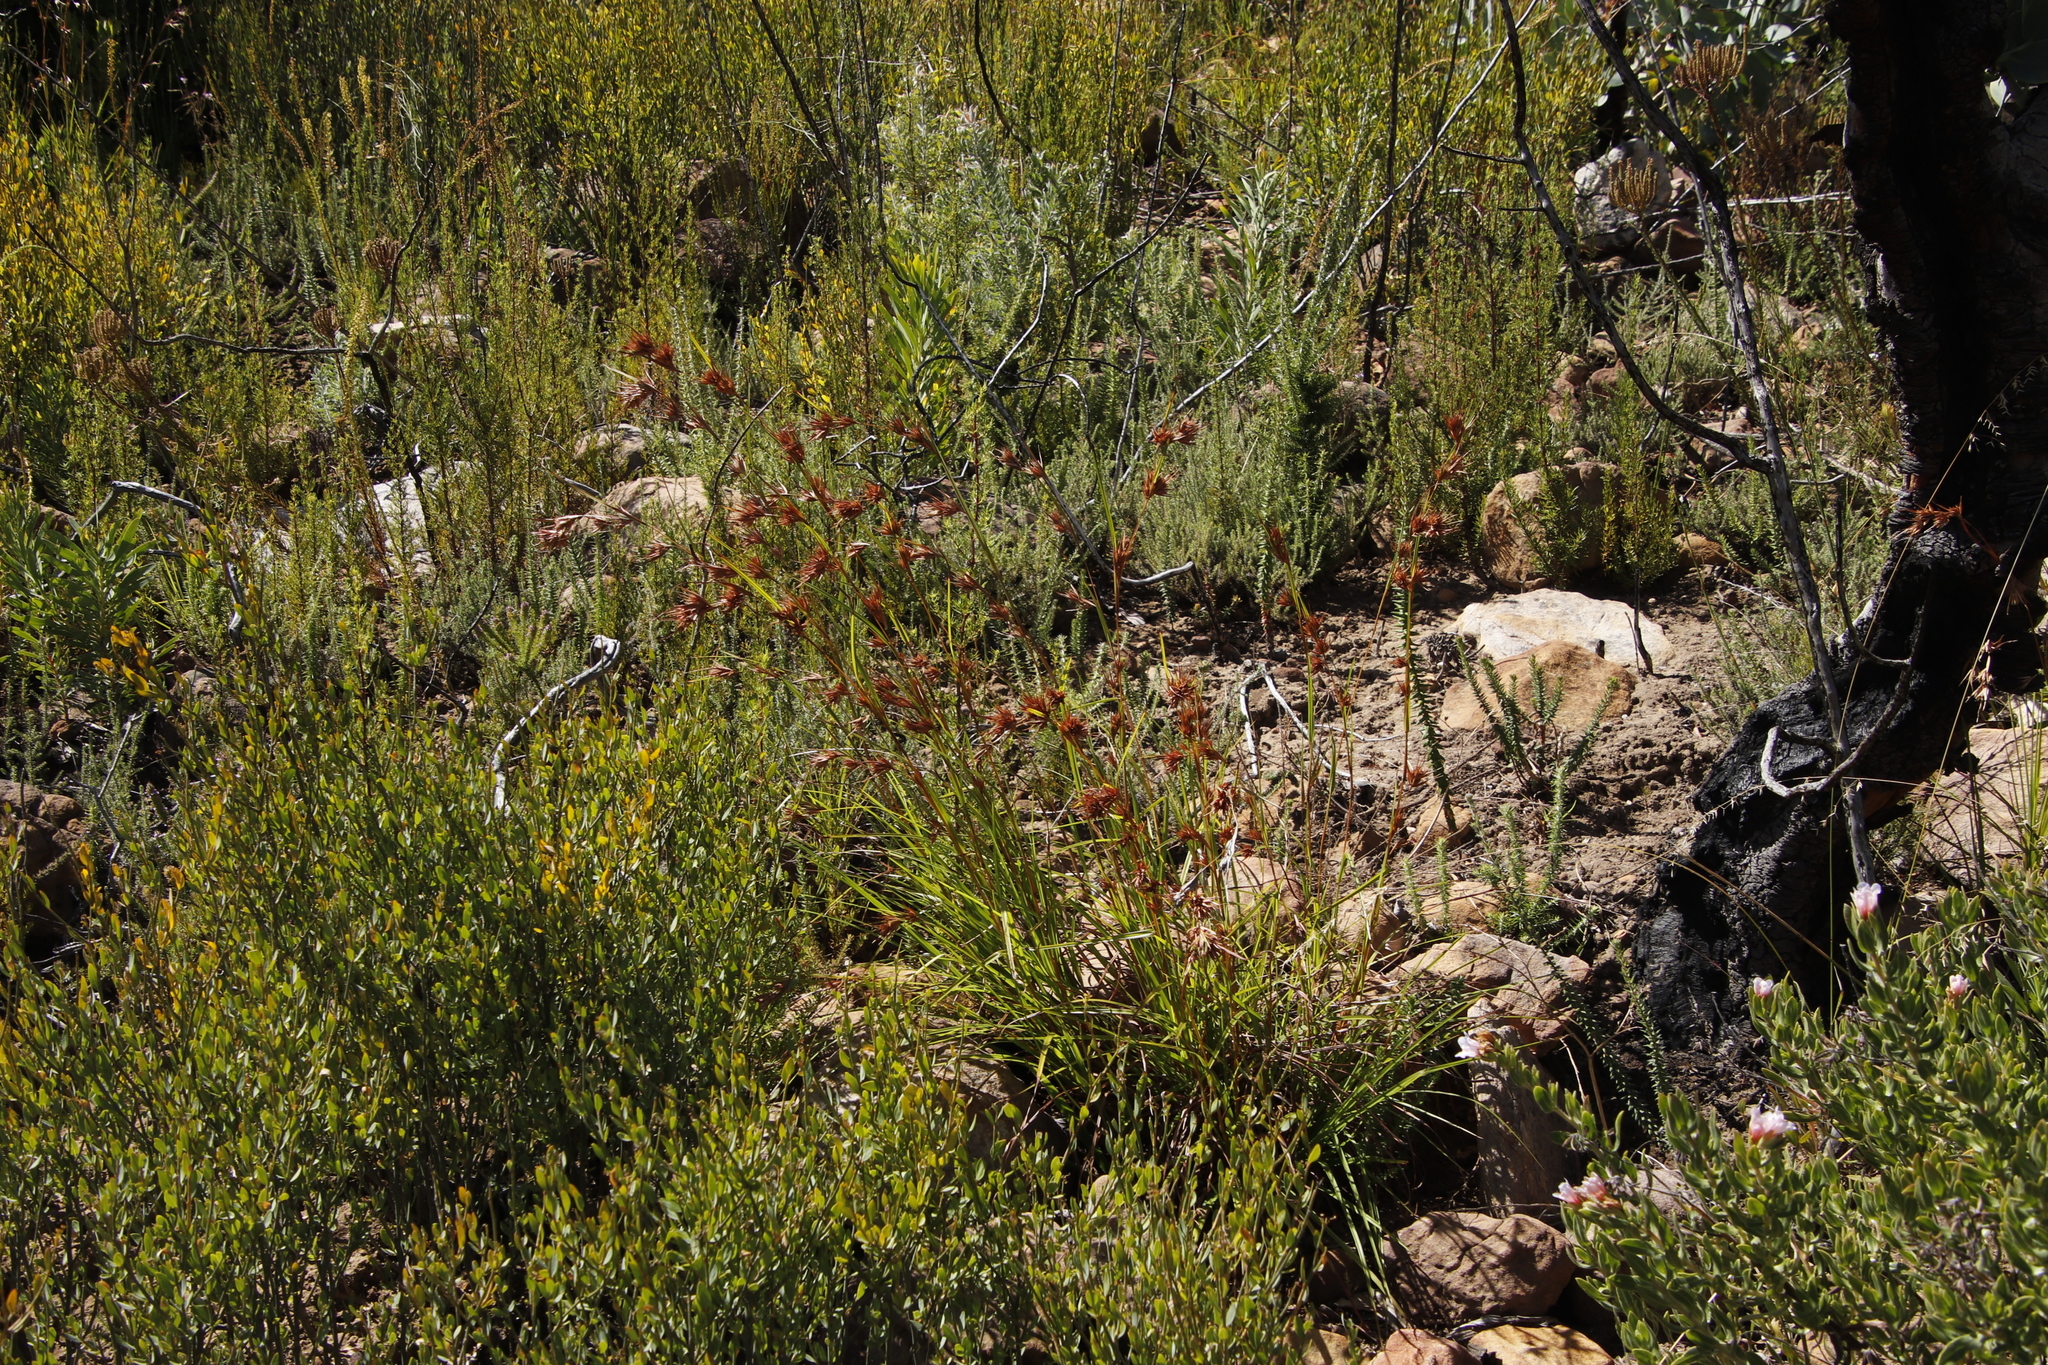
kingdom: Plantae
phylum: Tracheophyta
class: Liliopsida
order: Poales
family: Poaceae
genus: Themeda
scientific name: Themeda triandra
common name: Kangaroo grass
